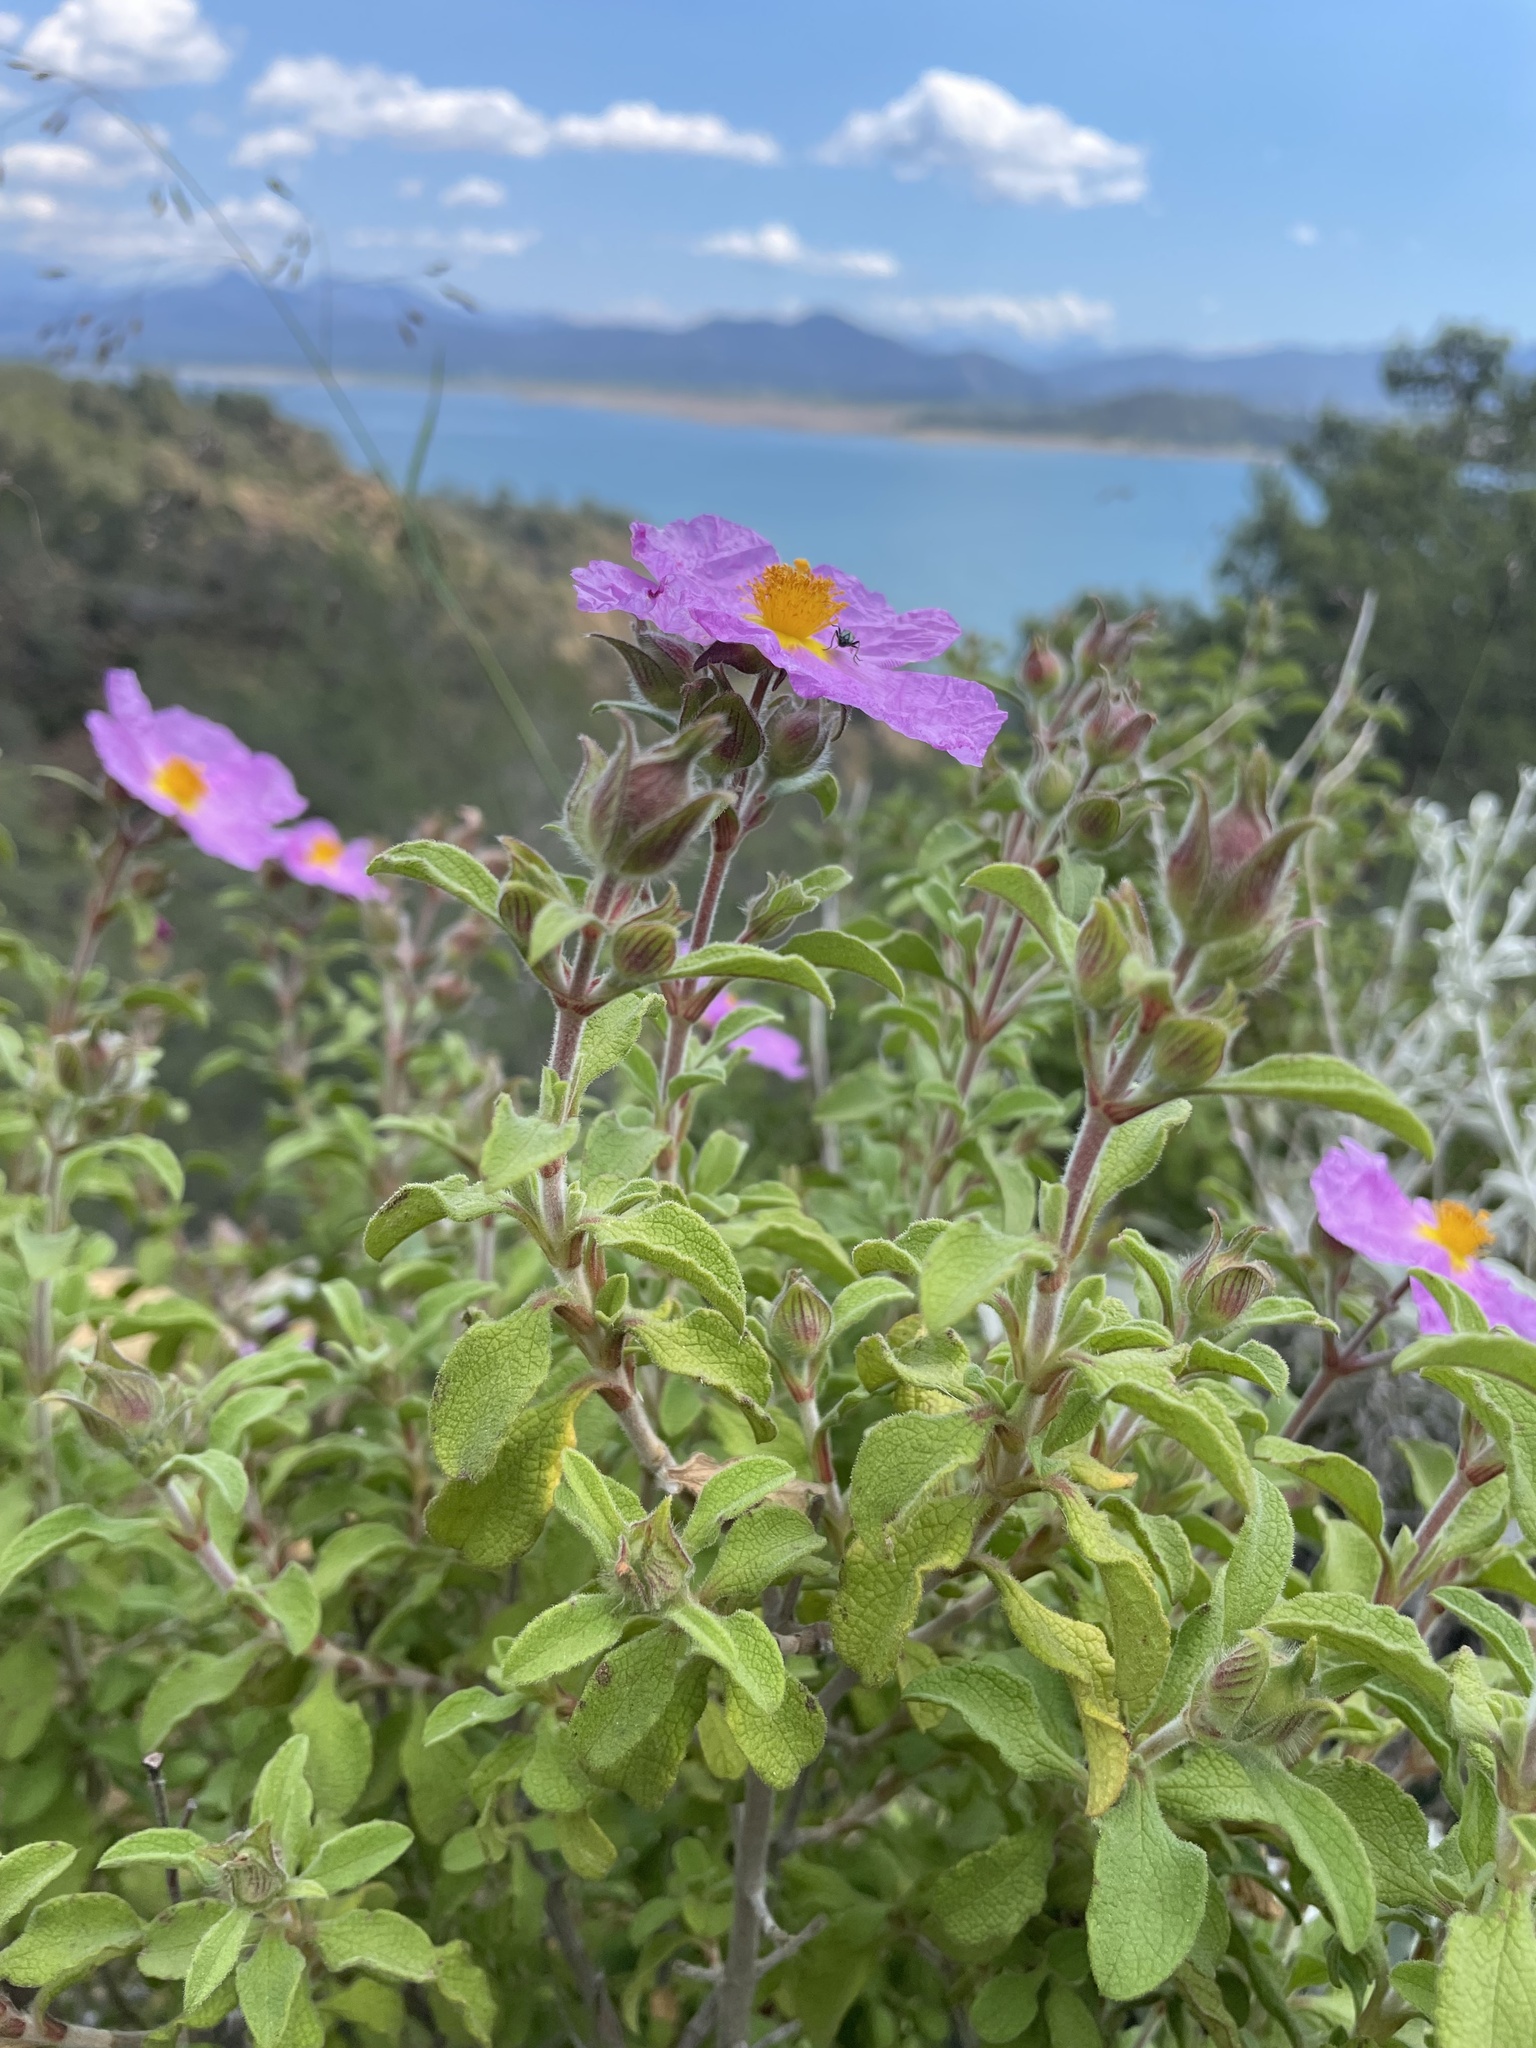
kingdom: Plantae
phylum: Tracheophyta
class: Magnoliopsida
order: Malvales
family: Cistaceae
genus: Cistus
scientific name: Cistus creticus
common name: Cretan rockrose
